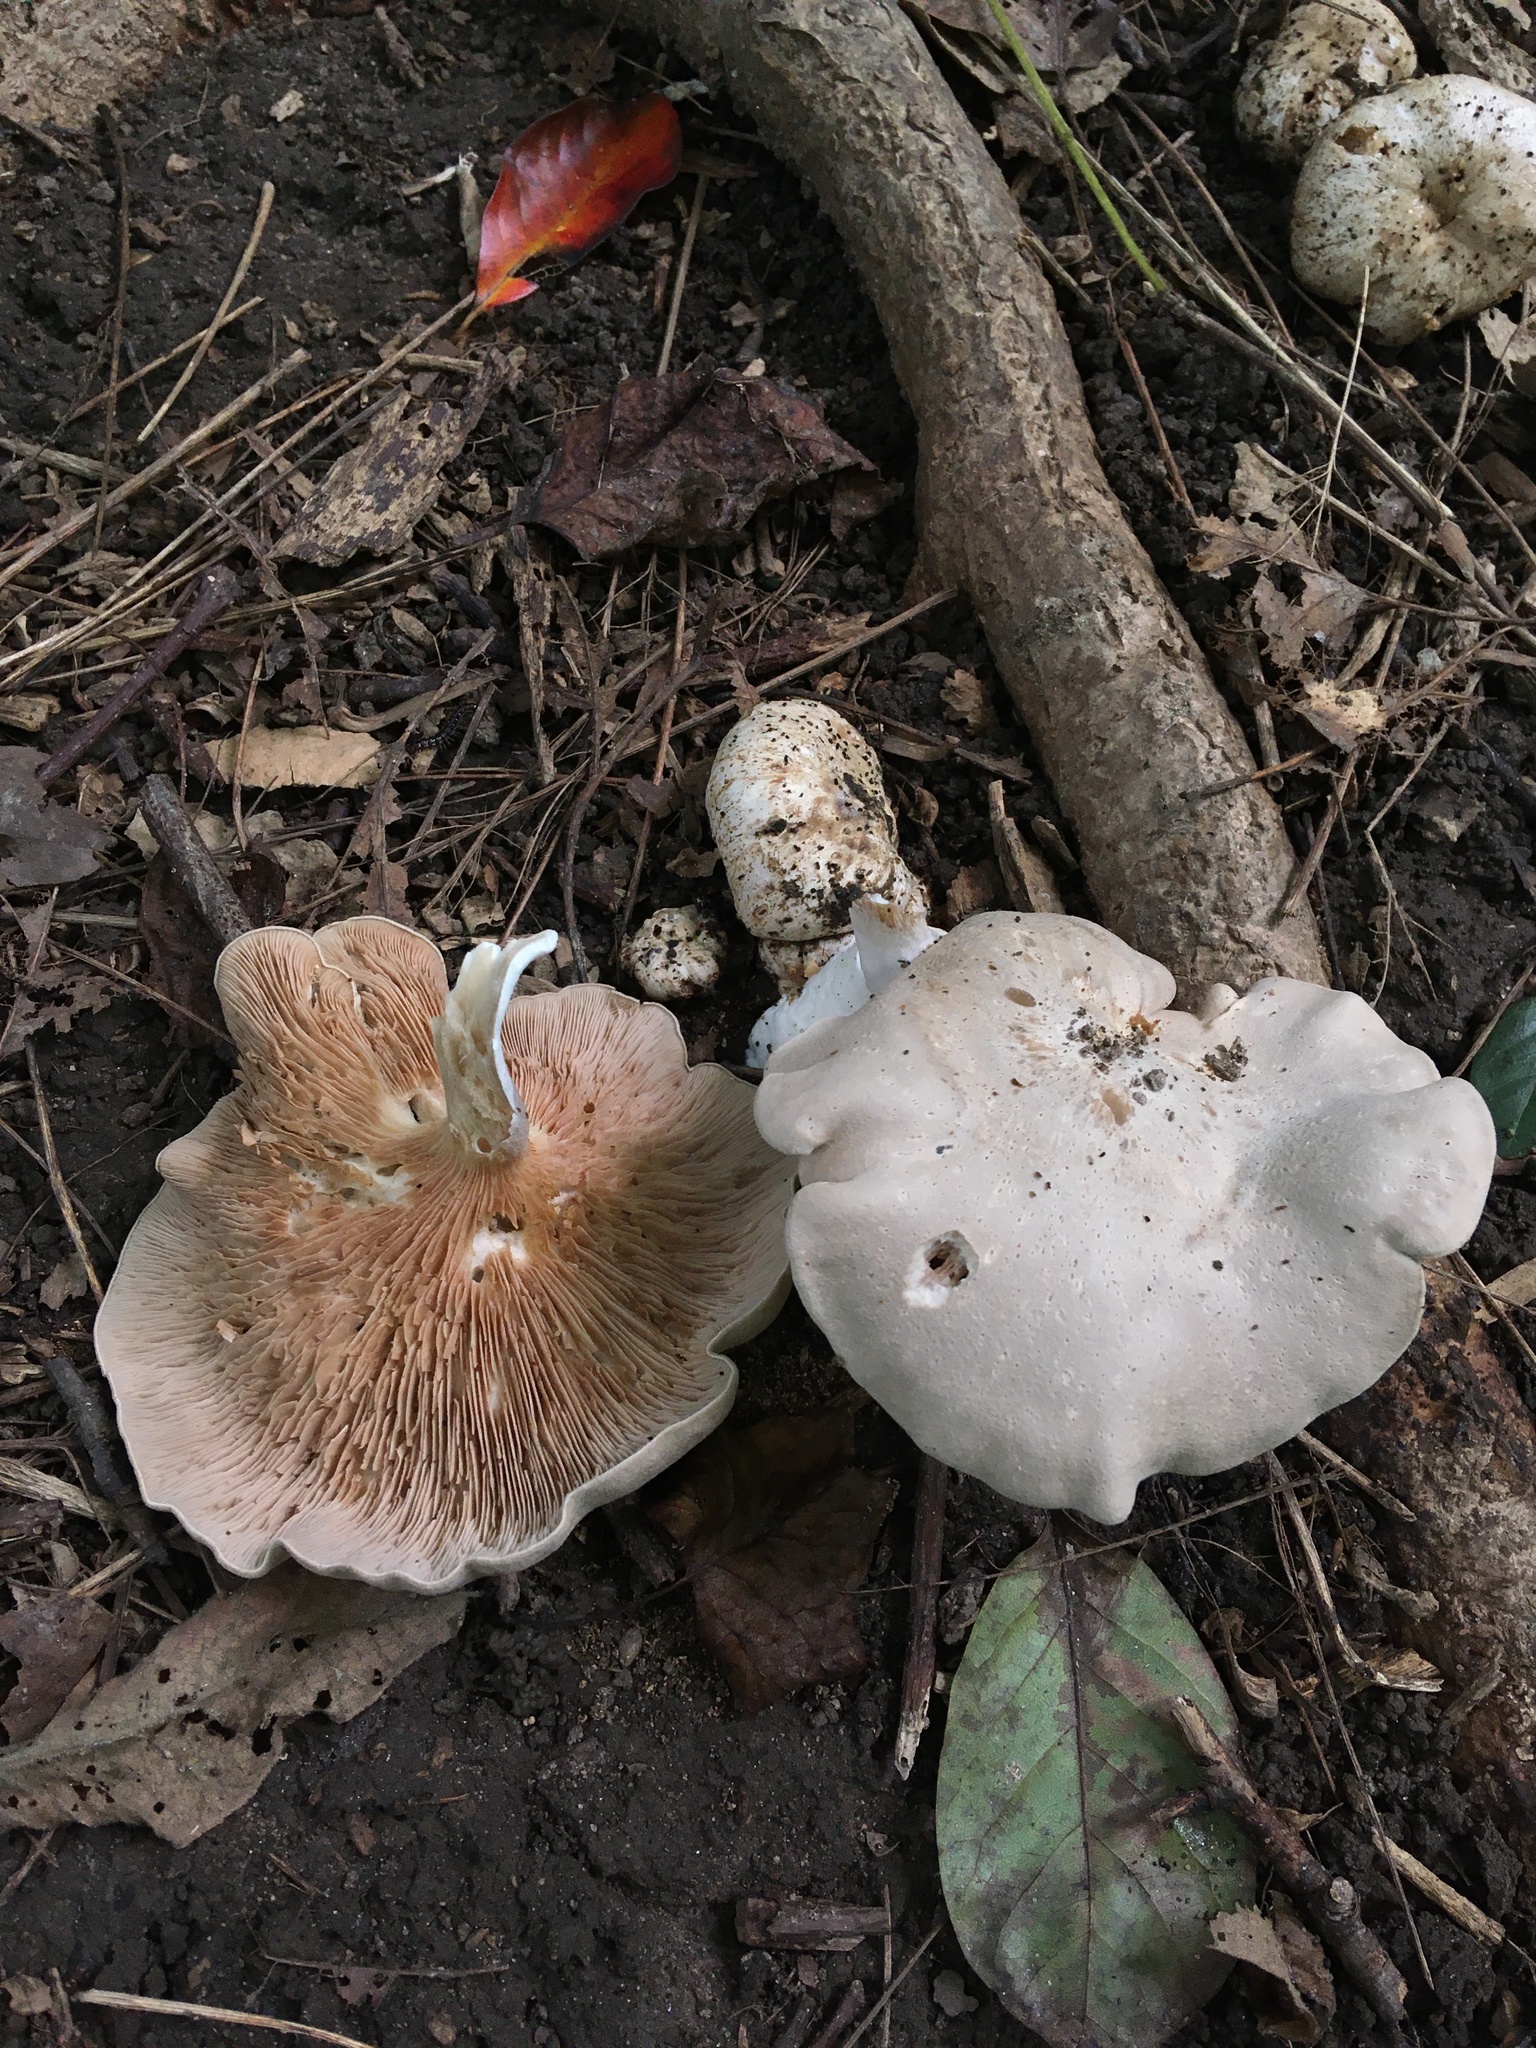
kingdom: Fungi
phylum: Basidiomycota
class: Agaricomycetes
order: Agaricales
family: Entolomataceae
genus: Entoloma
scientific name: Entoloma abortivum
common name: Aborted entoloma
